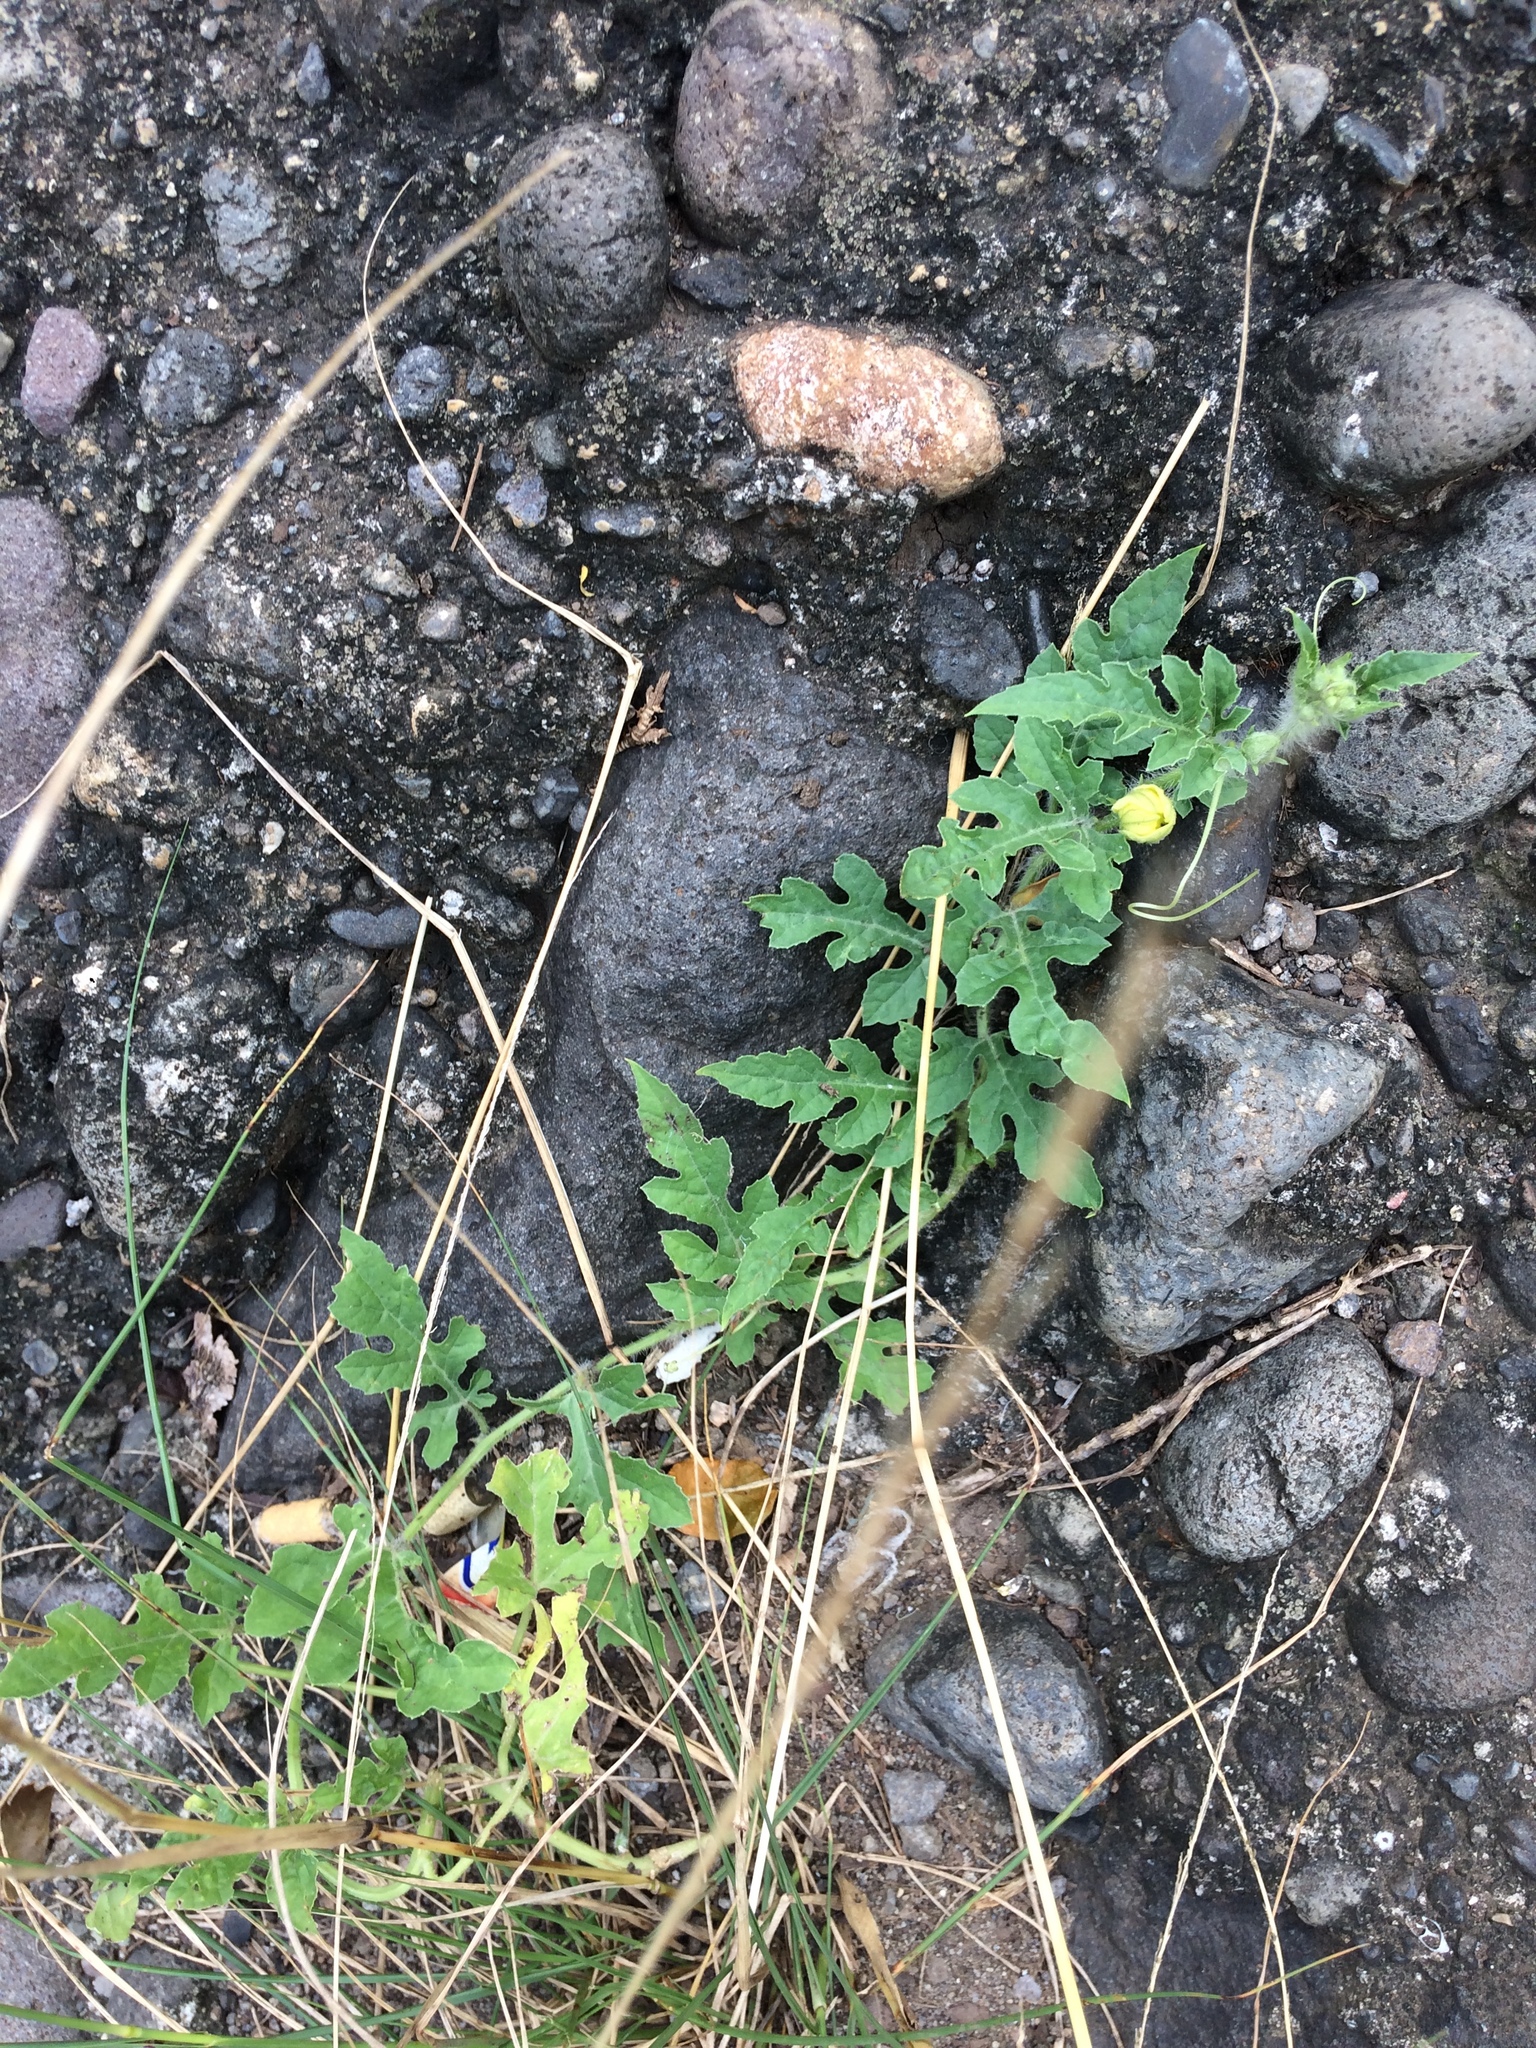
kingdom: Plantae
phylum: Tracheophyta
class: Magnoliopsida
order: Cucurbitales
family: Cucurbitaceae
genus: Citrullus
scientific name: Citrullus lanatus
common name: Watermelon
